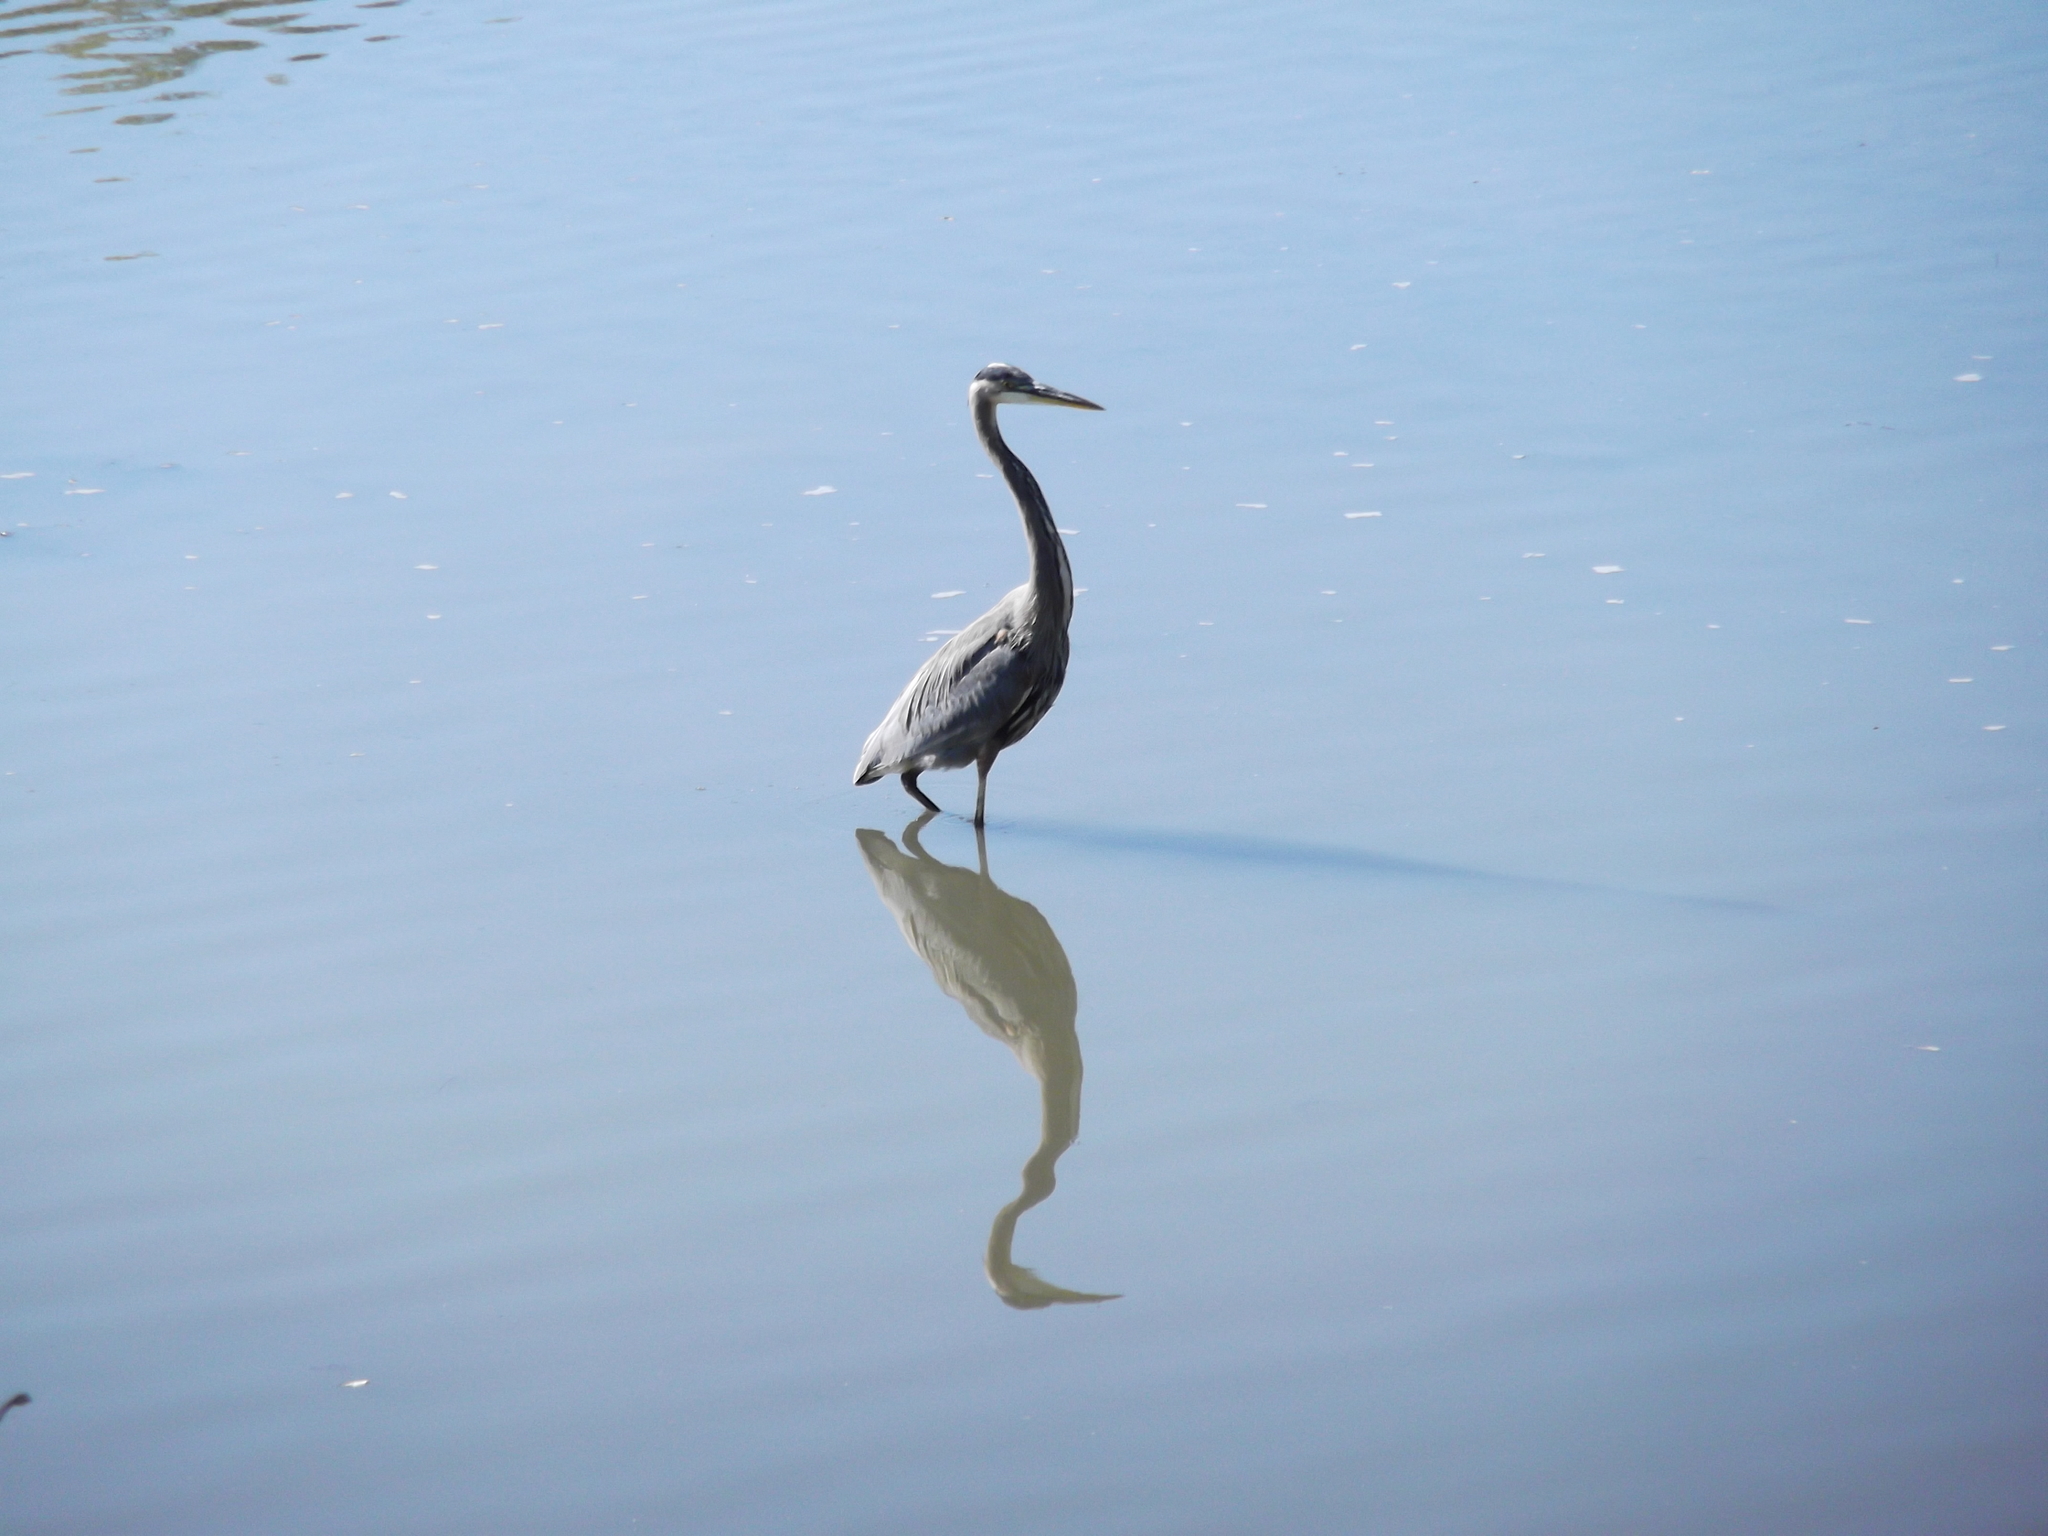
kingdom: Animalia
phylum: Chordata
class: Aves
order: Pelecaniformes
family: Ardeidae
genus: Ardea
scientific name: Ardea herodias
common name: Great blue heron
